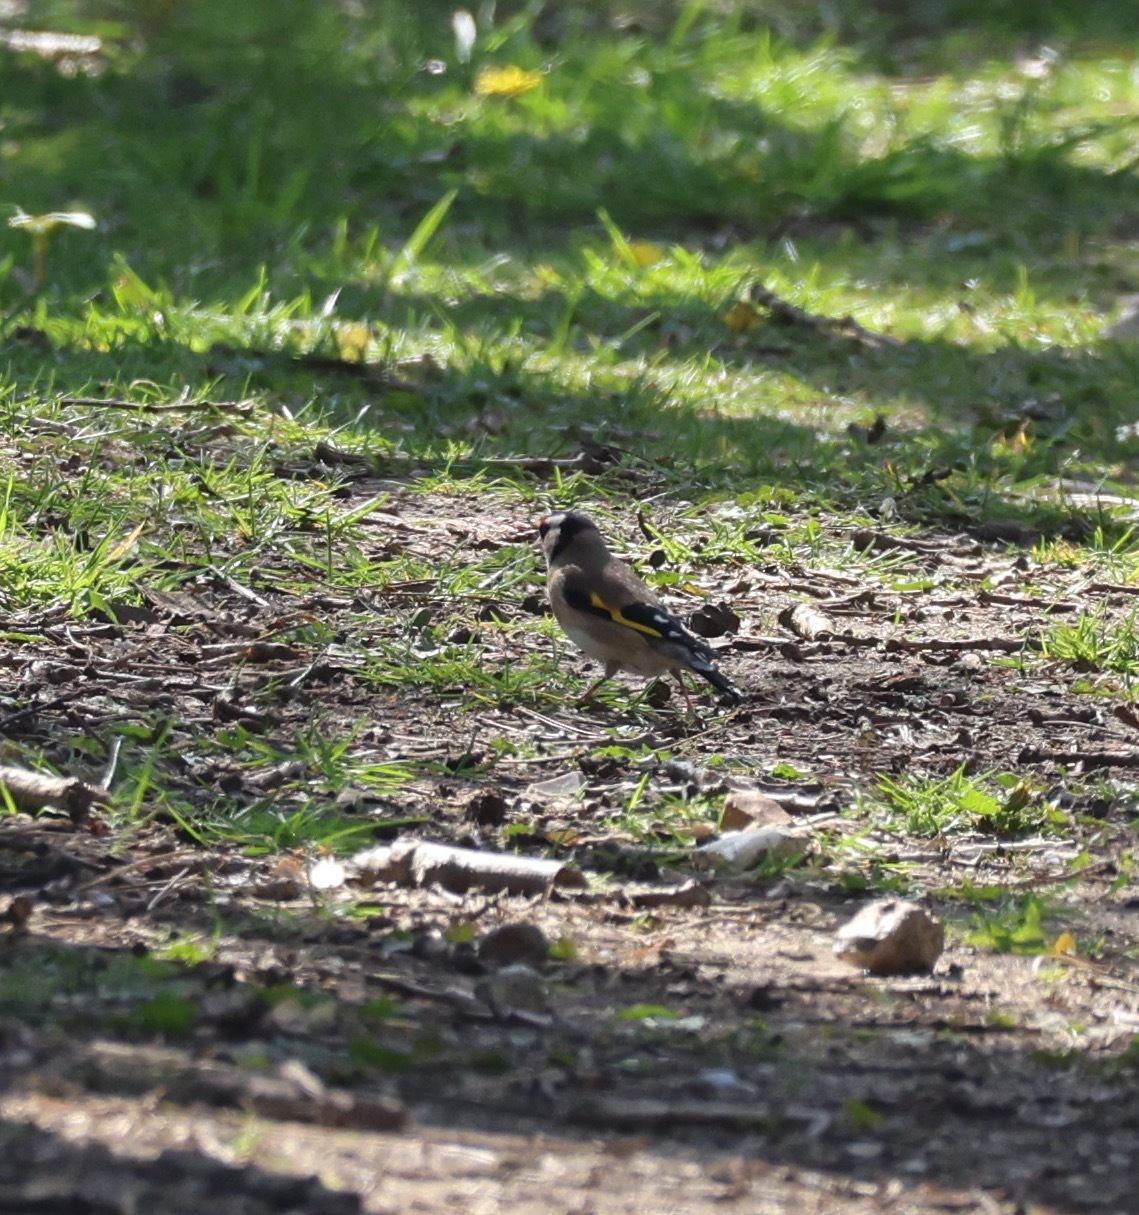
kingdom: Animalia
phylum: Chordata
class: Aves
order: Passeriformes
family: Fringillidae
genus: Carduelis
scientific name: Carduelis carduelis
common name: European goldfinch
